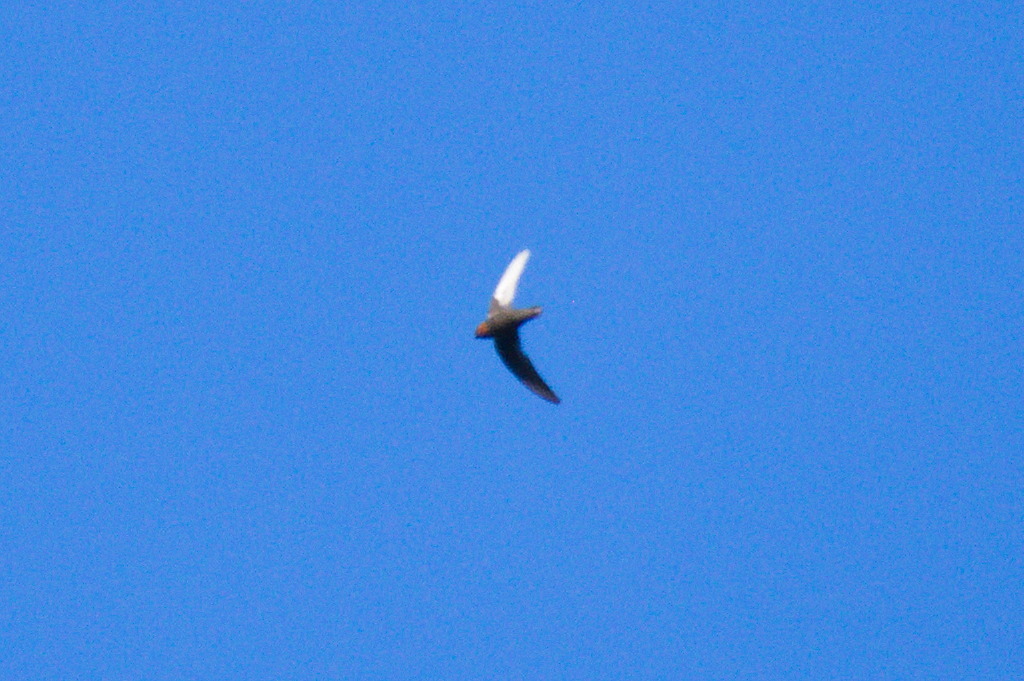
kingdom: Animalia
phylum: Chordata
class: Aves
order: Apodiformes
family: Apodidae
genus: Streptoprocne
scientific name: Streptoprocne rutila
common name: Chestnut-collared swift
